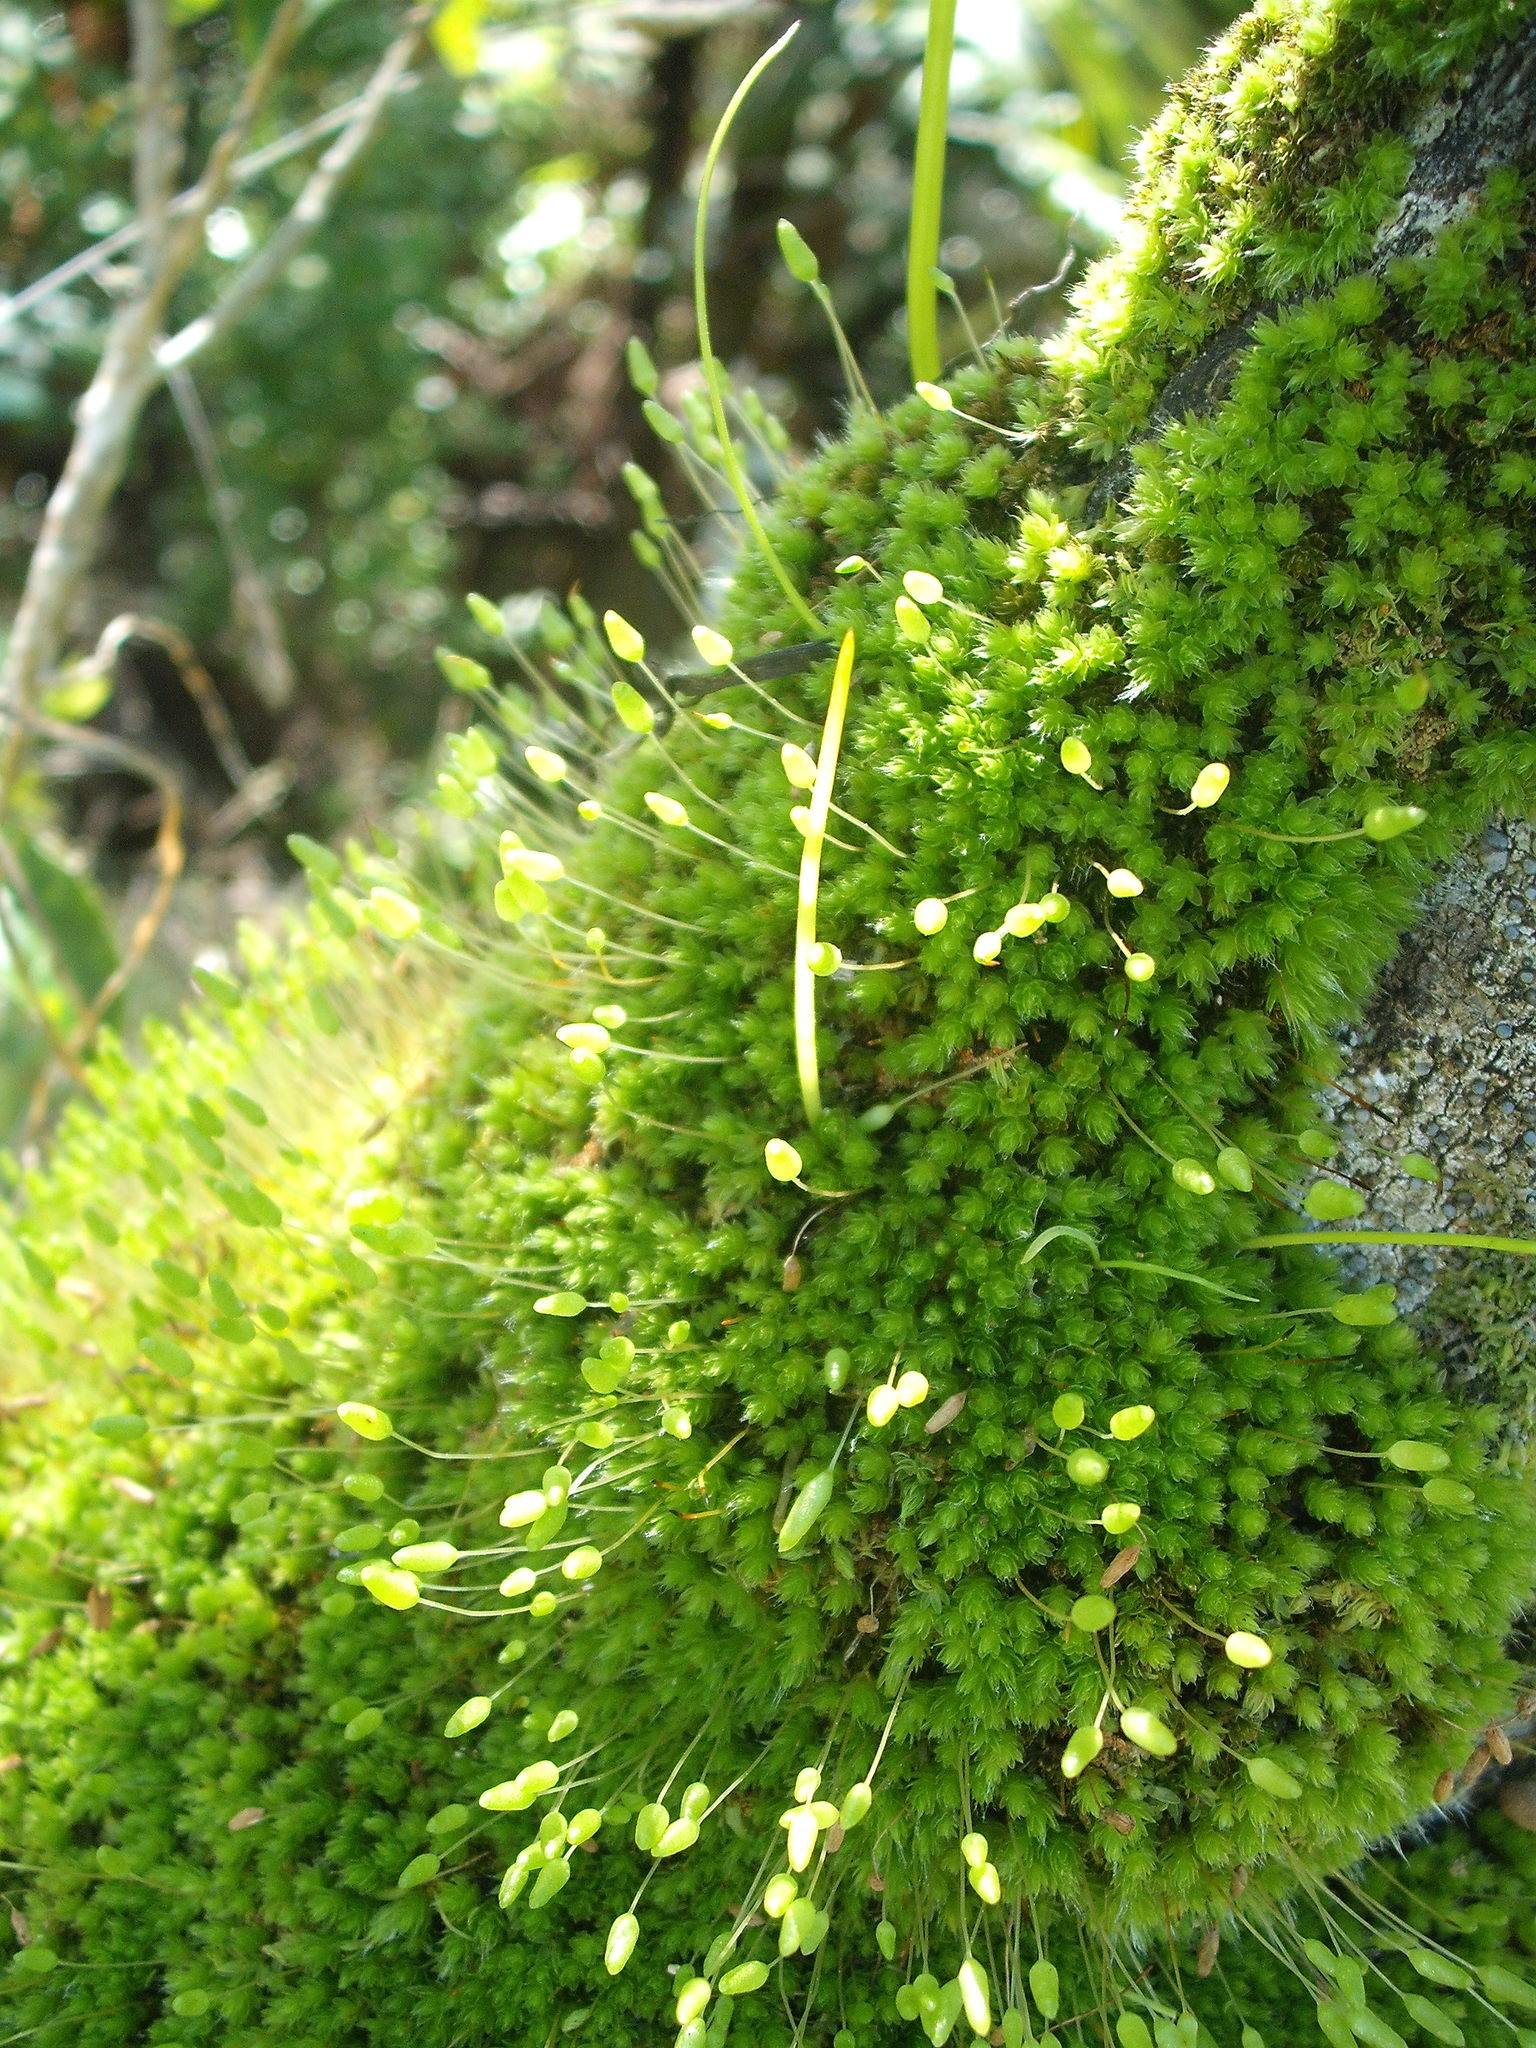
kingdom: Plantae
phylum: Bryophyta
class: Bryopsida
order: Bryales
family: Leptostomataceae
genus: Leptostomum
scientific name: Leptostomum macrocarpon
